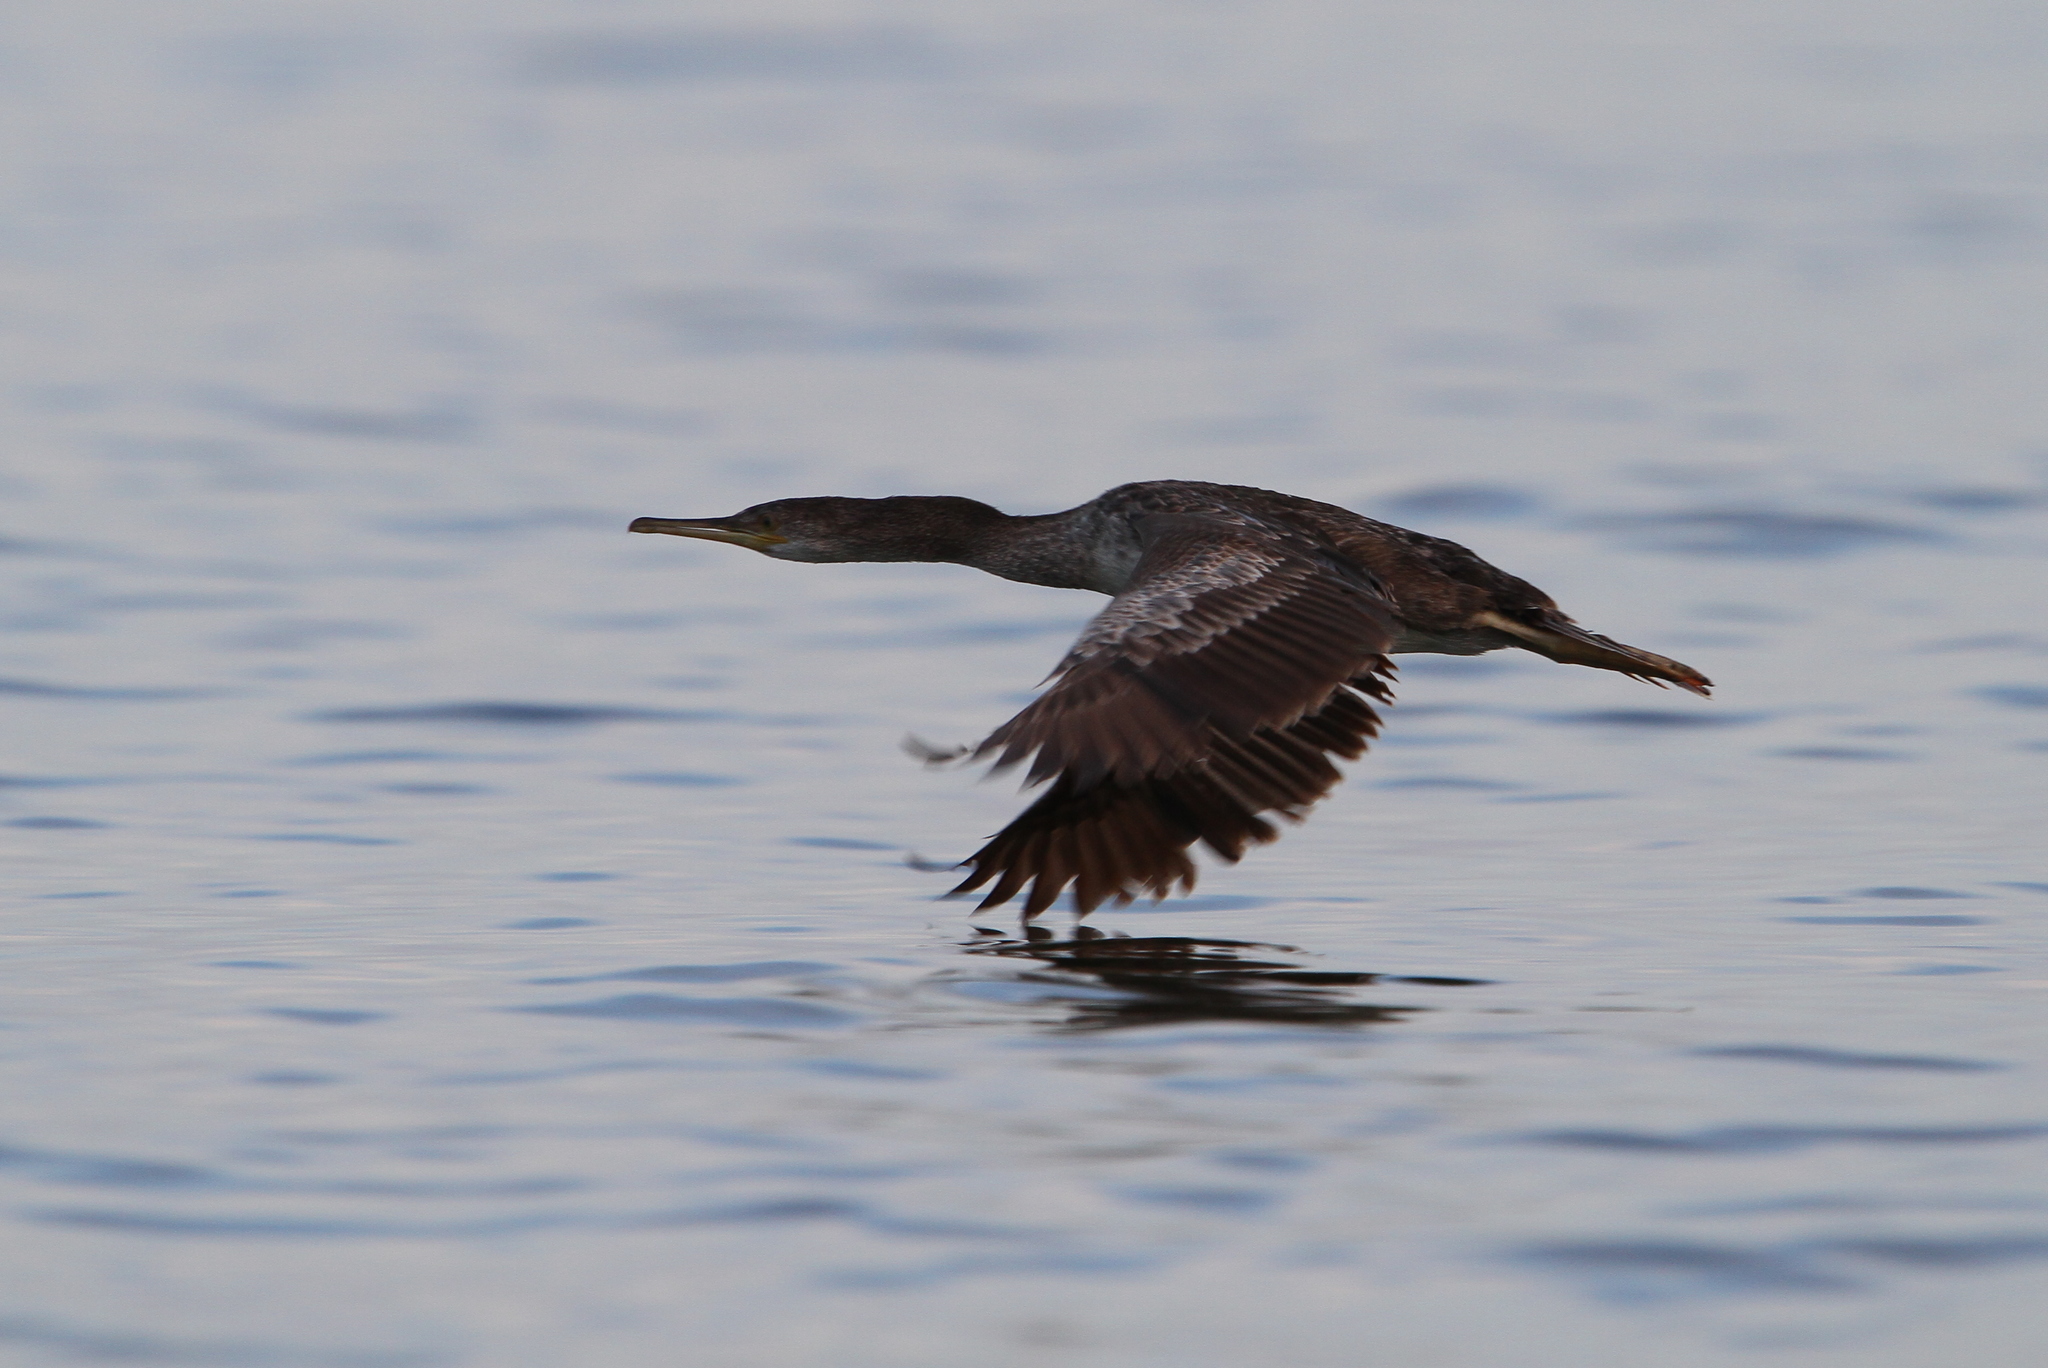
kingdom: Animalia
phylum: Chordata
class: Aves
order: Suliformes
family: Phalacrocoracidae
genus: Phalacrocorax
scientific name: Phalacrocorax aristotelis
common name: European shag
